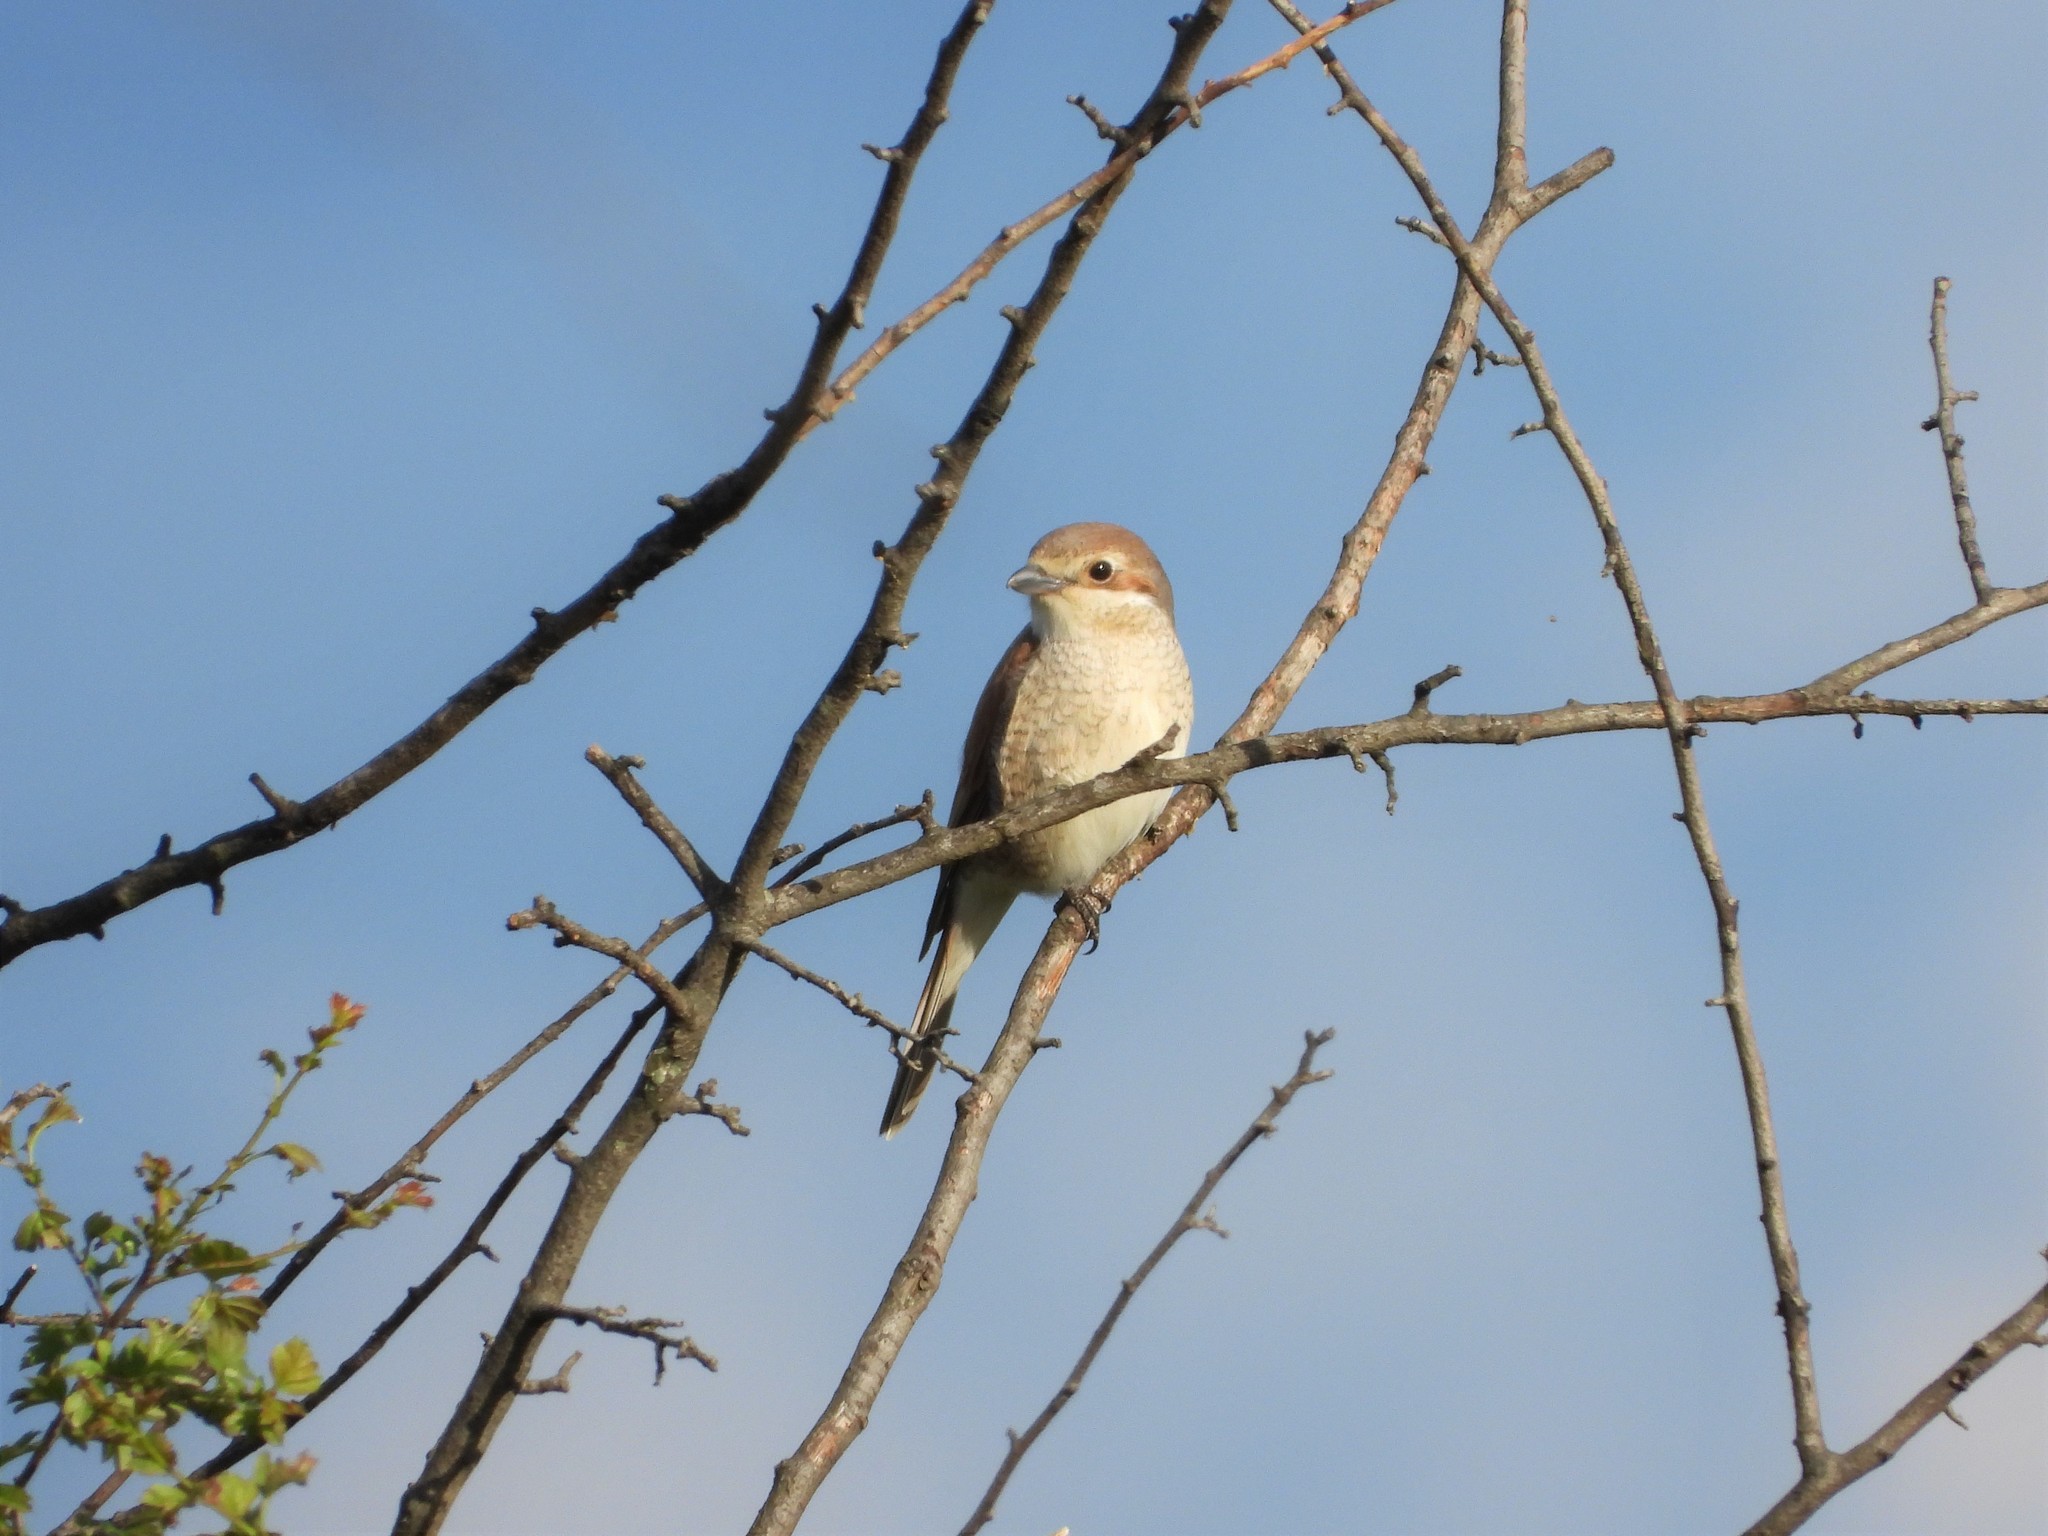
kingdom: Animalia
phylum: Chordata
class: Aves
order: Passeriformes
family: Laniidae
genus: Lanius
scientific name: Lanius collurio
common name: Red-backed shrike
